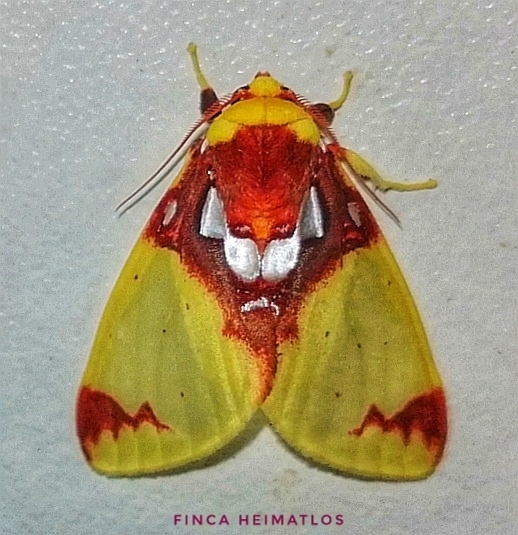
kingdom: Animalia
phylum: Arthropoda
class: Insecta
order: Lepidoptera
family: Erebidae
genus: Amaxia
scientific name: Amaxia chaon
